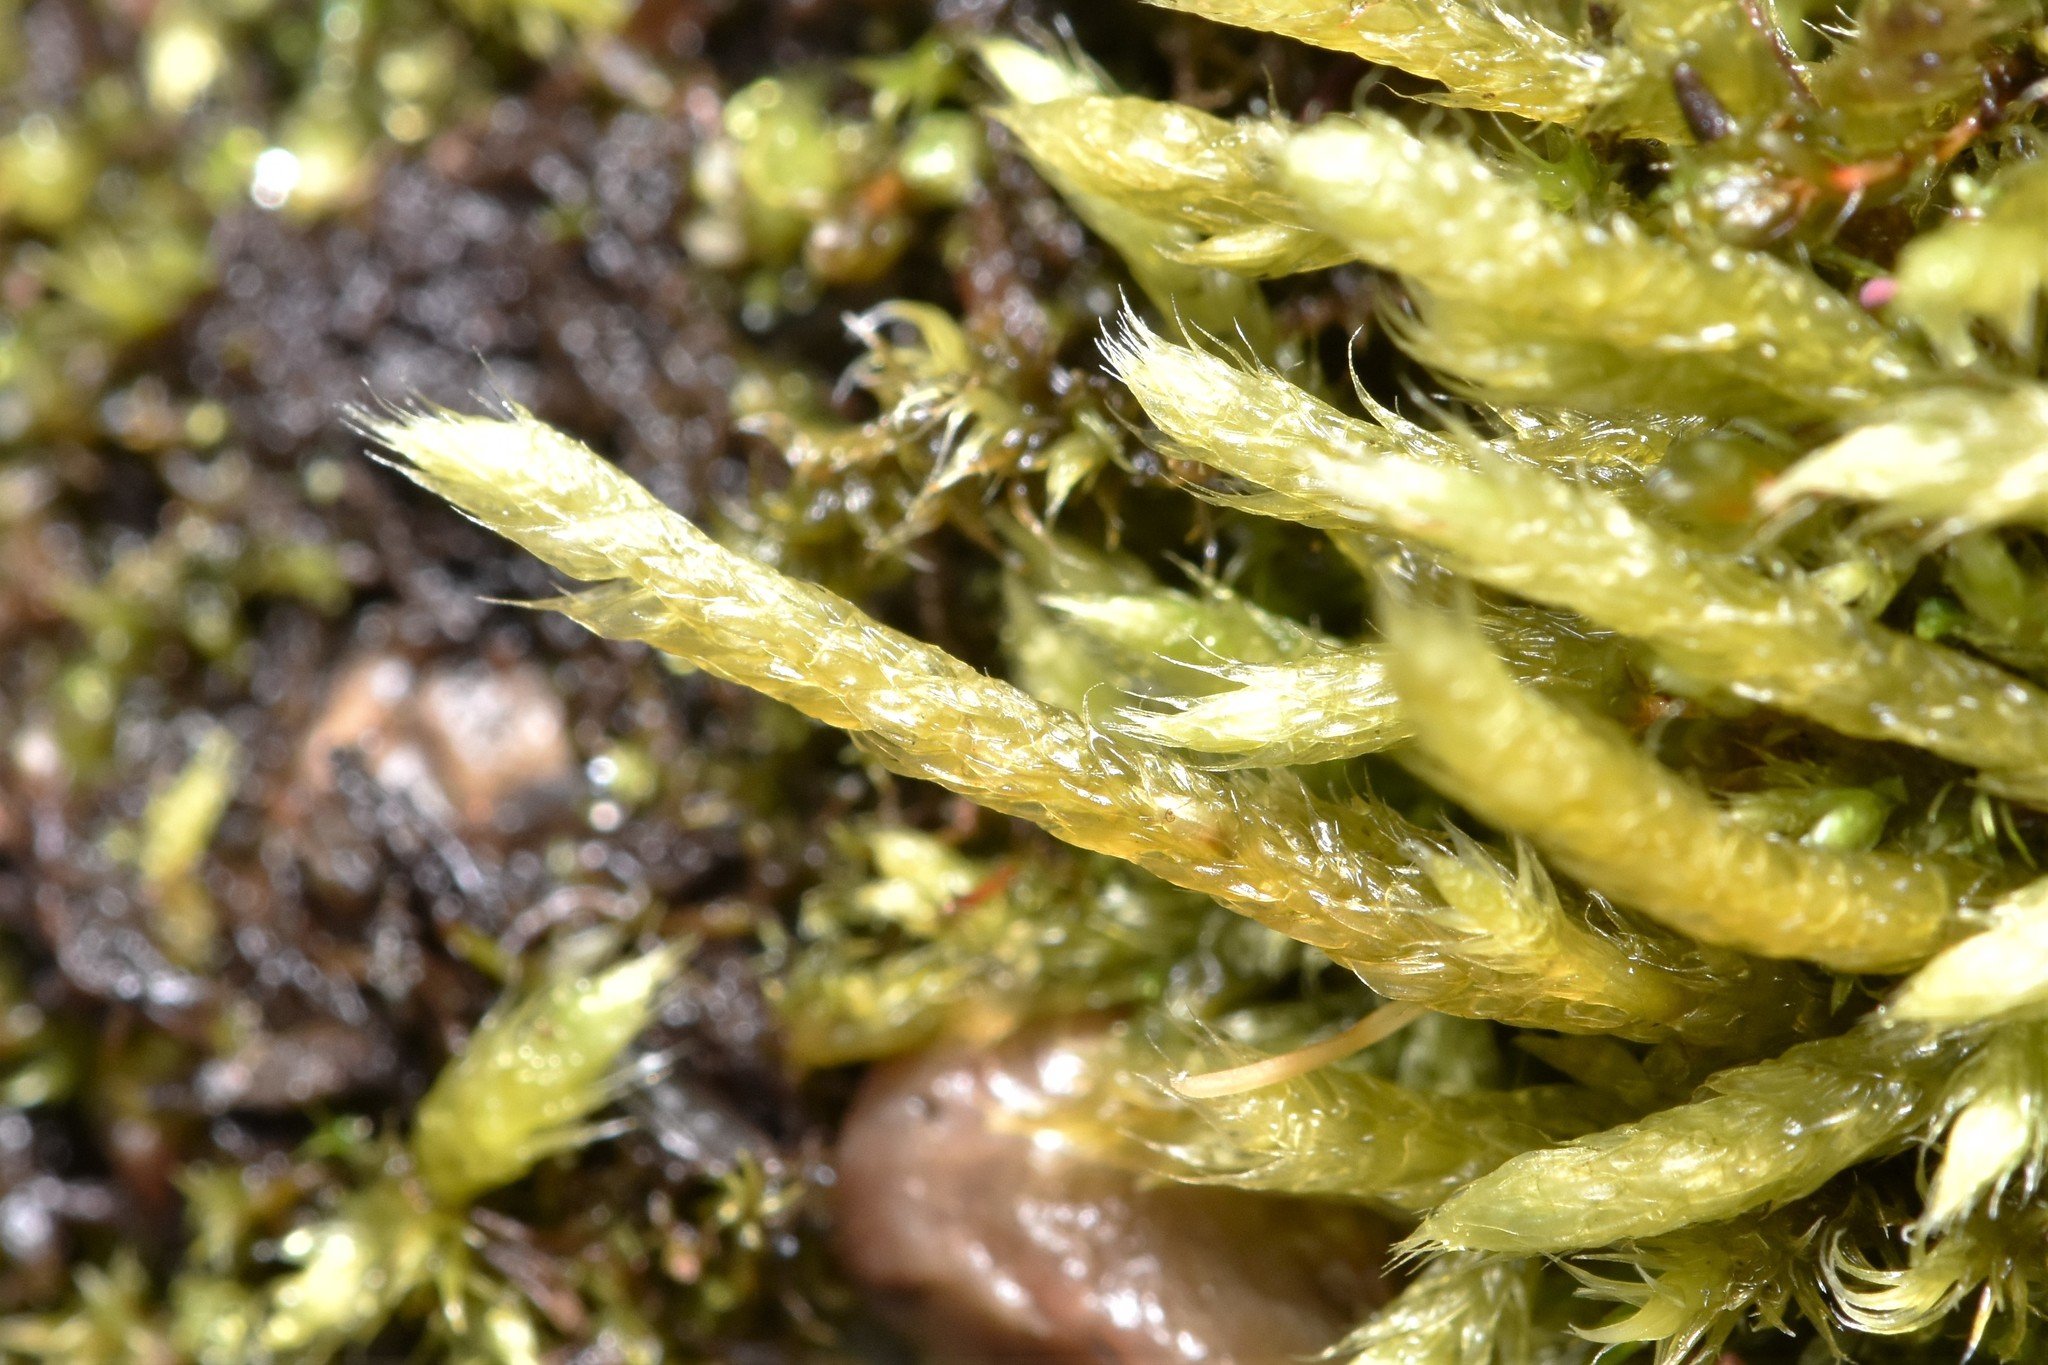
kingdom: Plantae
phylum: Bryophyta
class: Bryopsida
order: Hypnales
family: Brachytheciaceae
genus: Brachythecium
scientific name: Brachythecium albicans
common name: Whitish ragged moss
